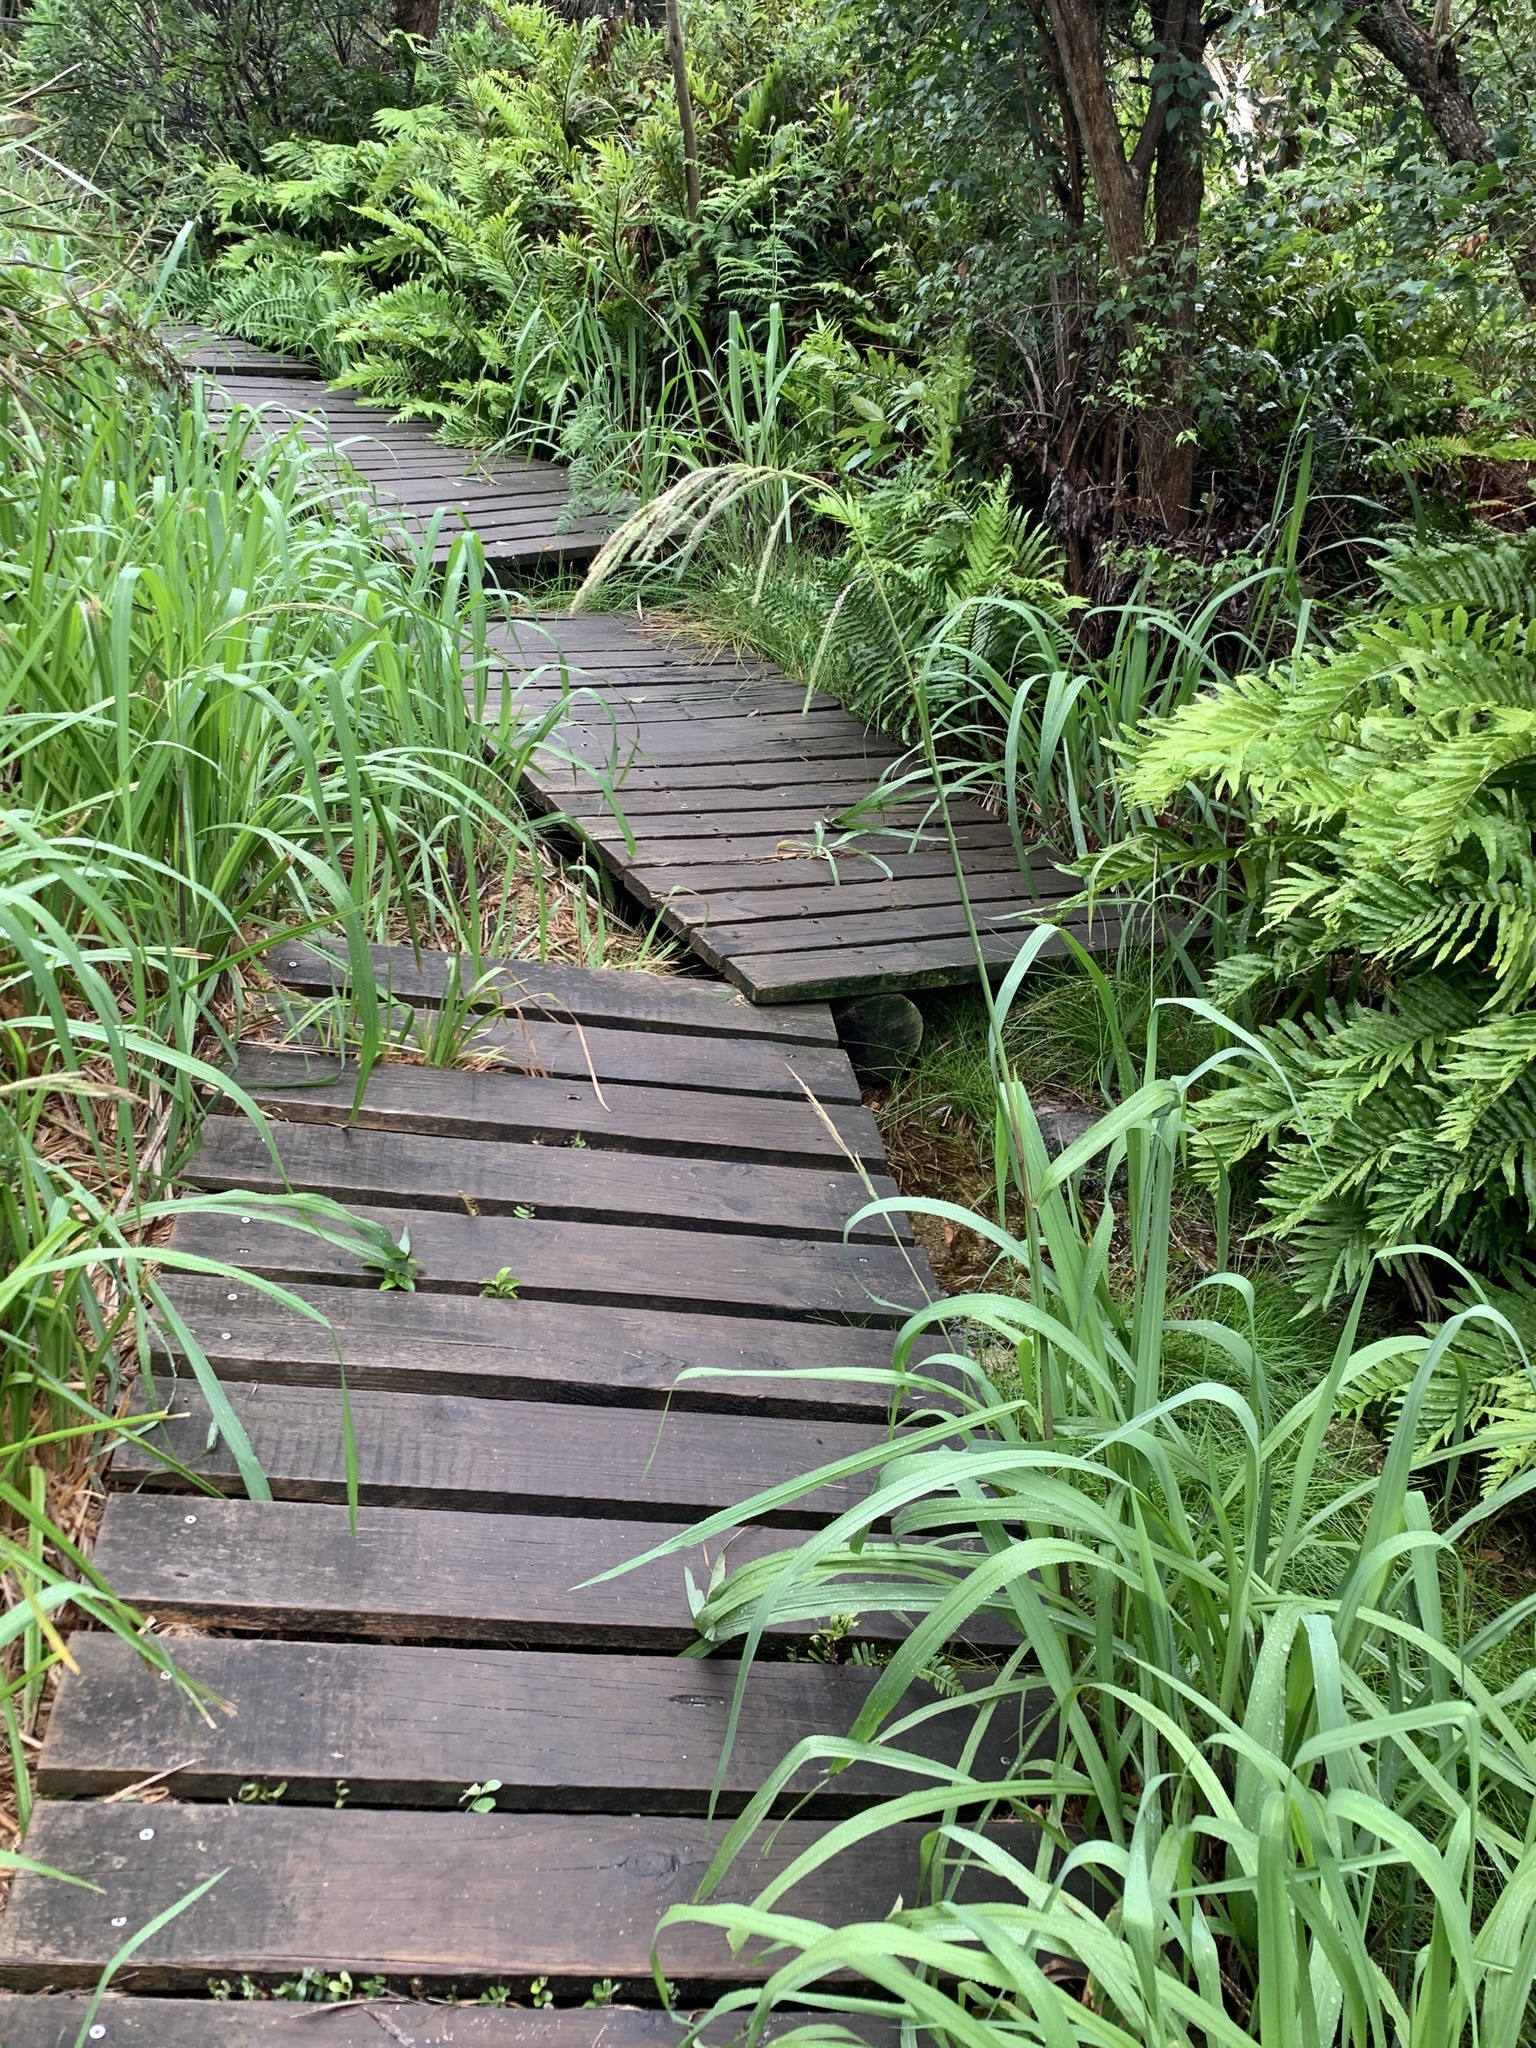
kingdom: Plantae
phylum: Tracheophyta
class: Liliopsida
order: Poales
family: Poaceae
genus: Paspalum
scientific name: Paspalum urvillei
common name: Vasey's grass
